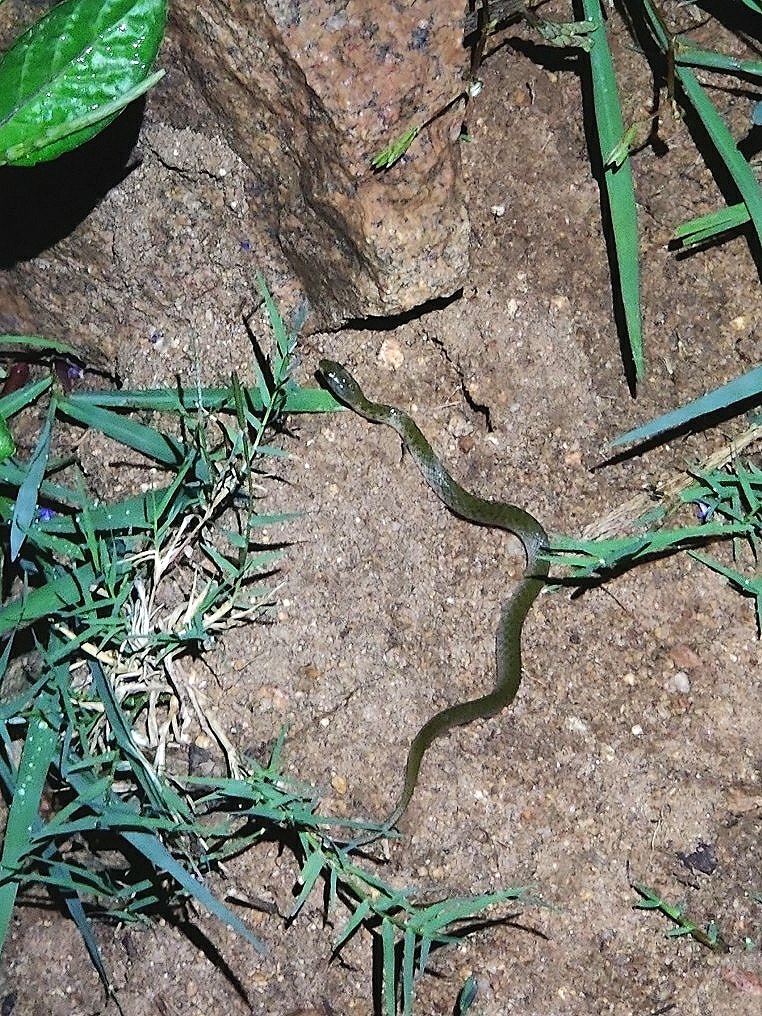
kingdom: Animalia
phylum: Chordata
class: Squamata
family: Colubridae
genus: Fowlea
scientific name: Fowlea piscator
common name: Asiatic water snake
